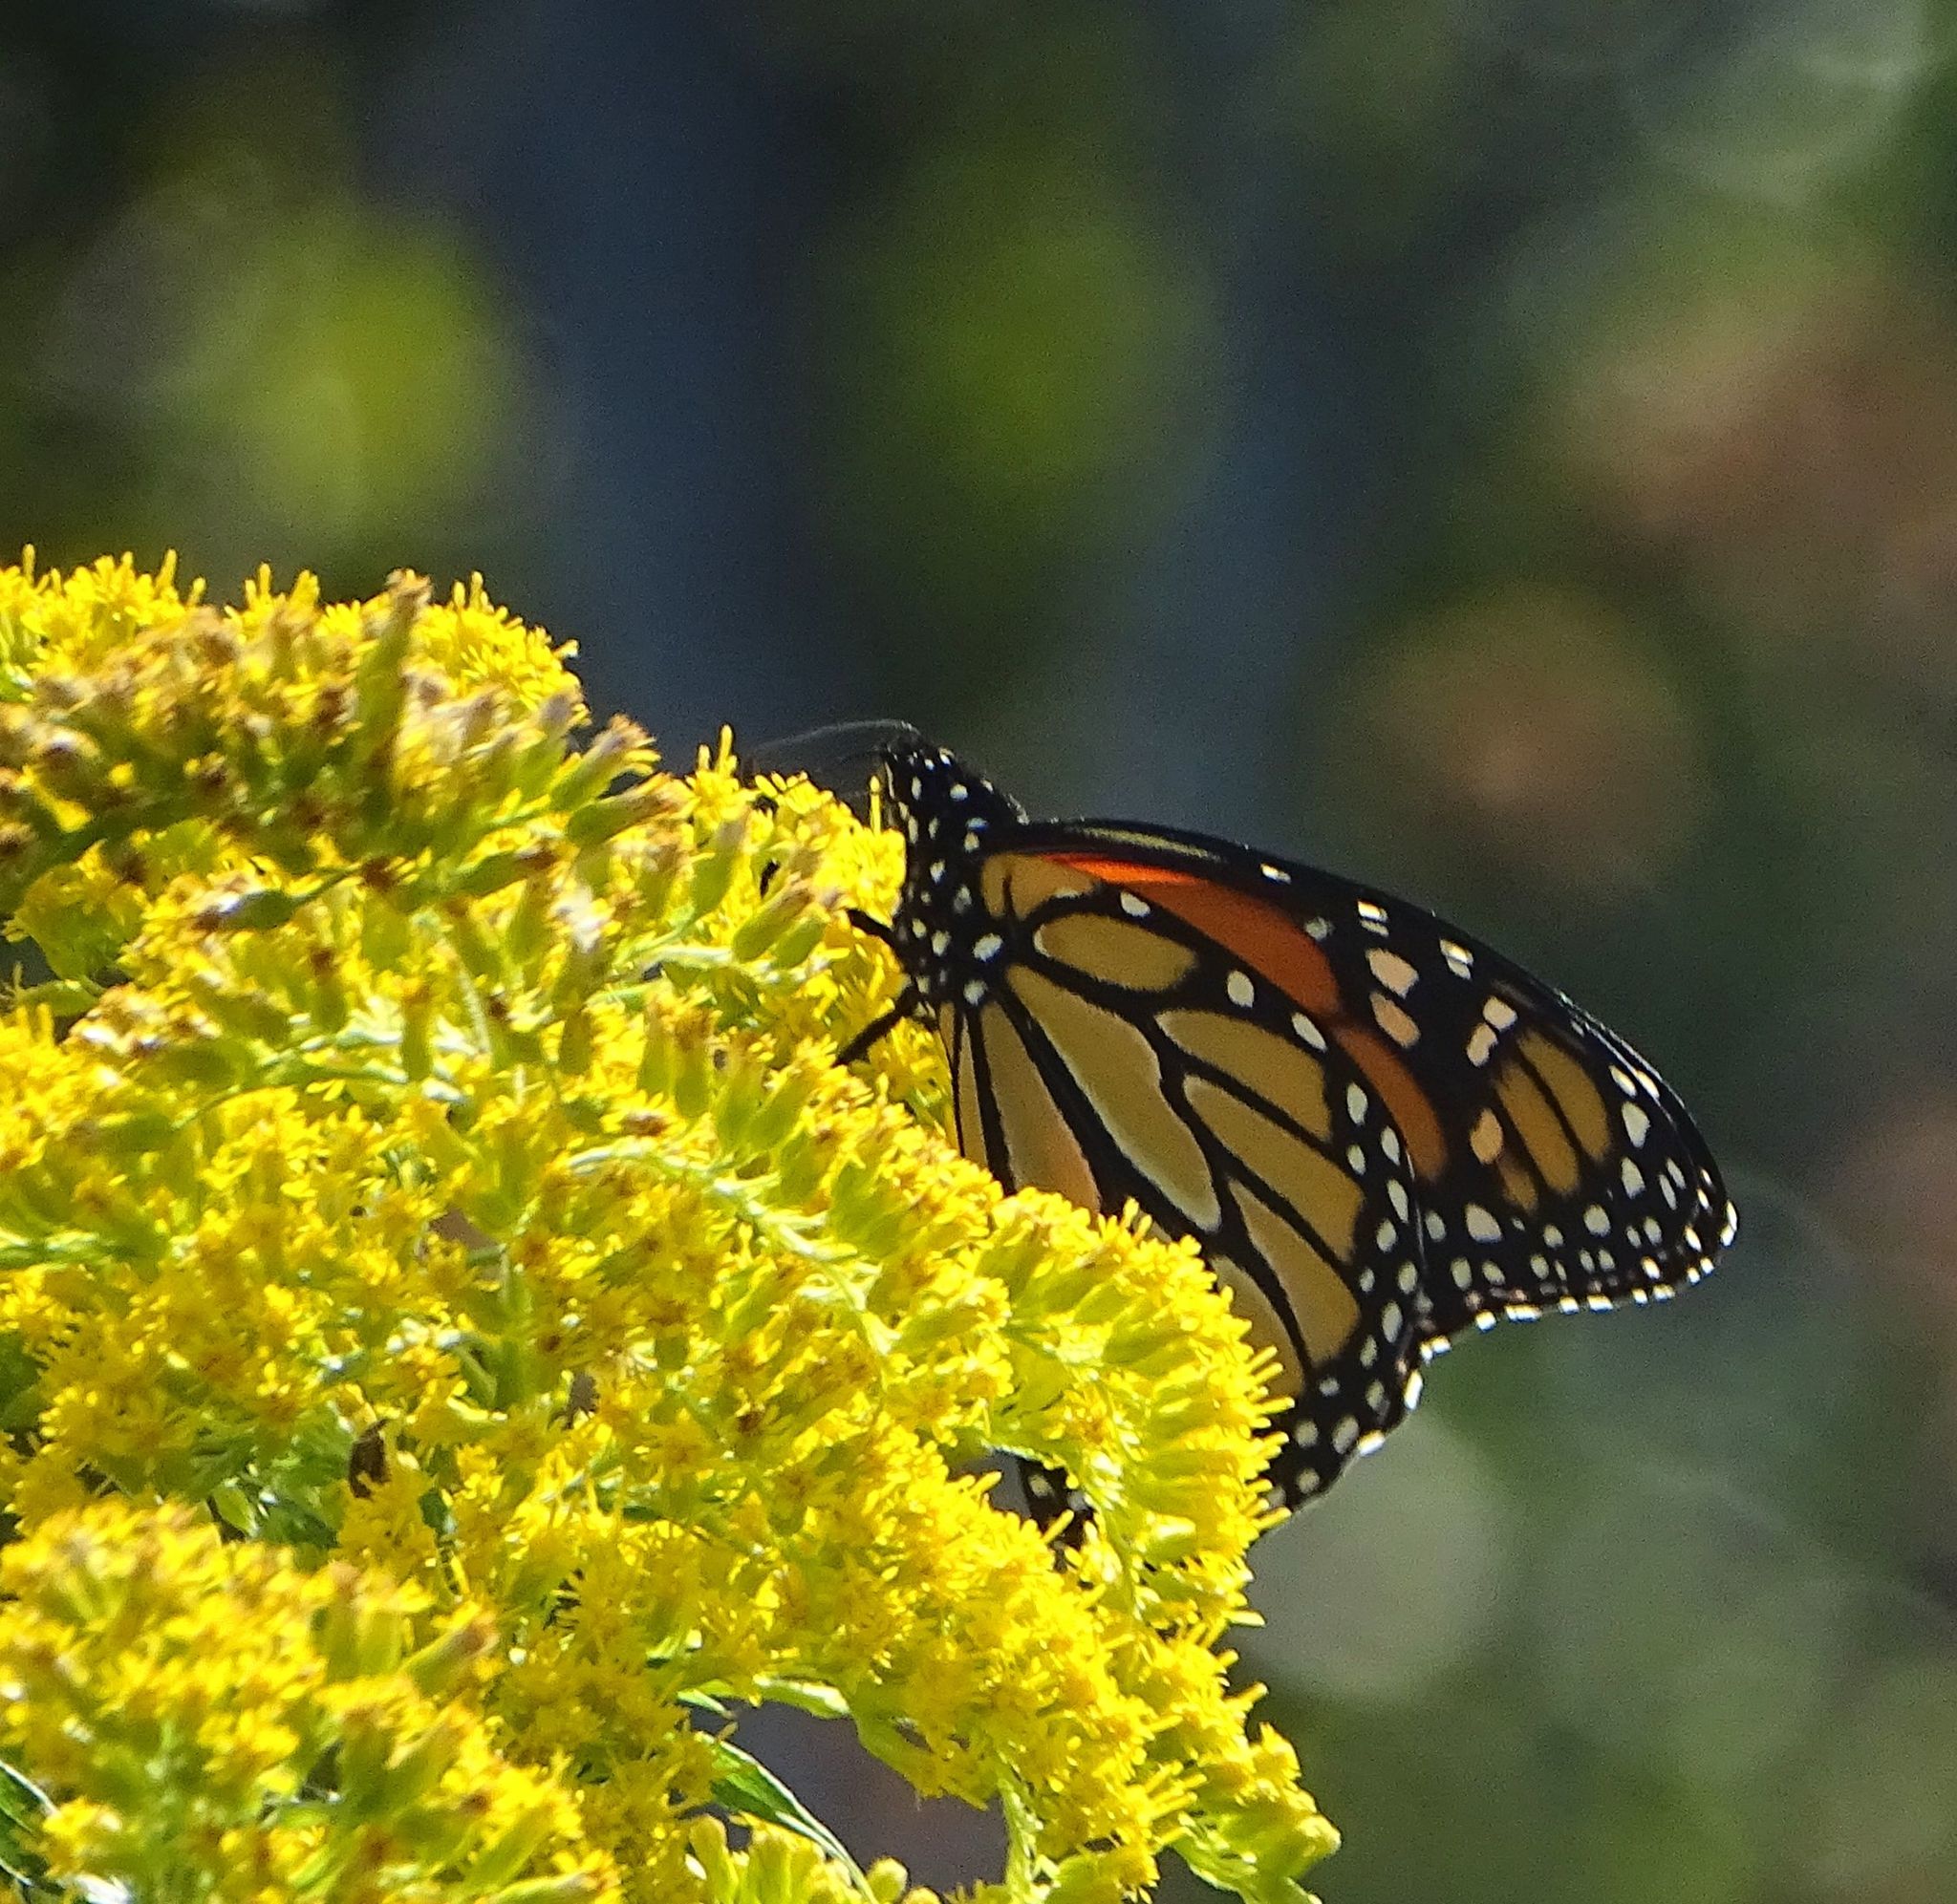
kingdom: Animalia
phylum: Arthropoda
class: Insecta
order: Lepidoptera
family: Nymphalidae
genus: Danaus
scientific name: Danaus plexippus
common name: Monarch
